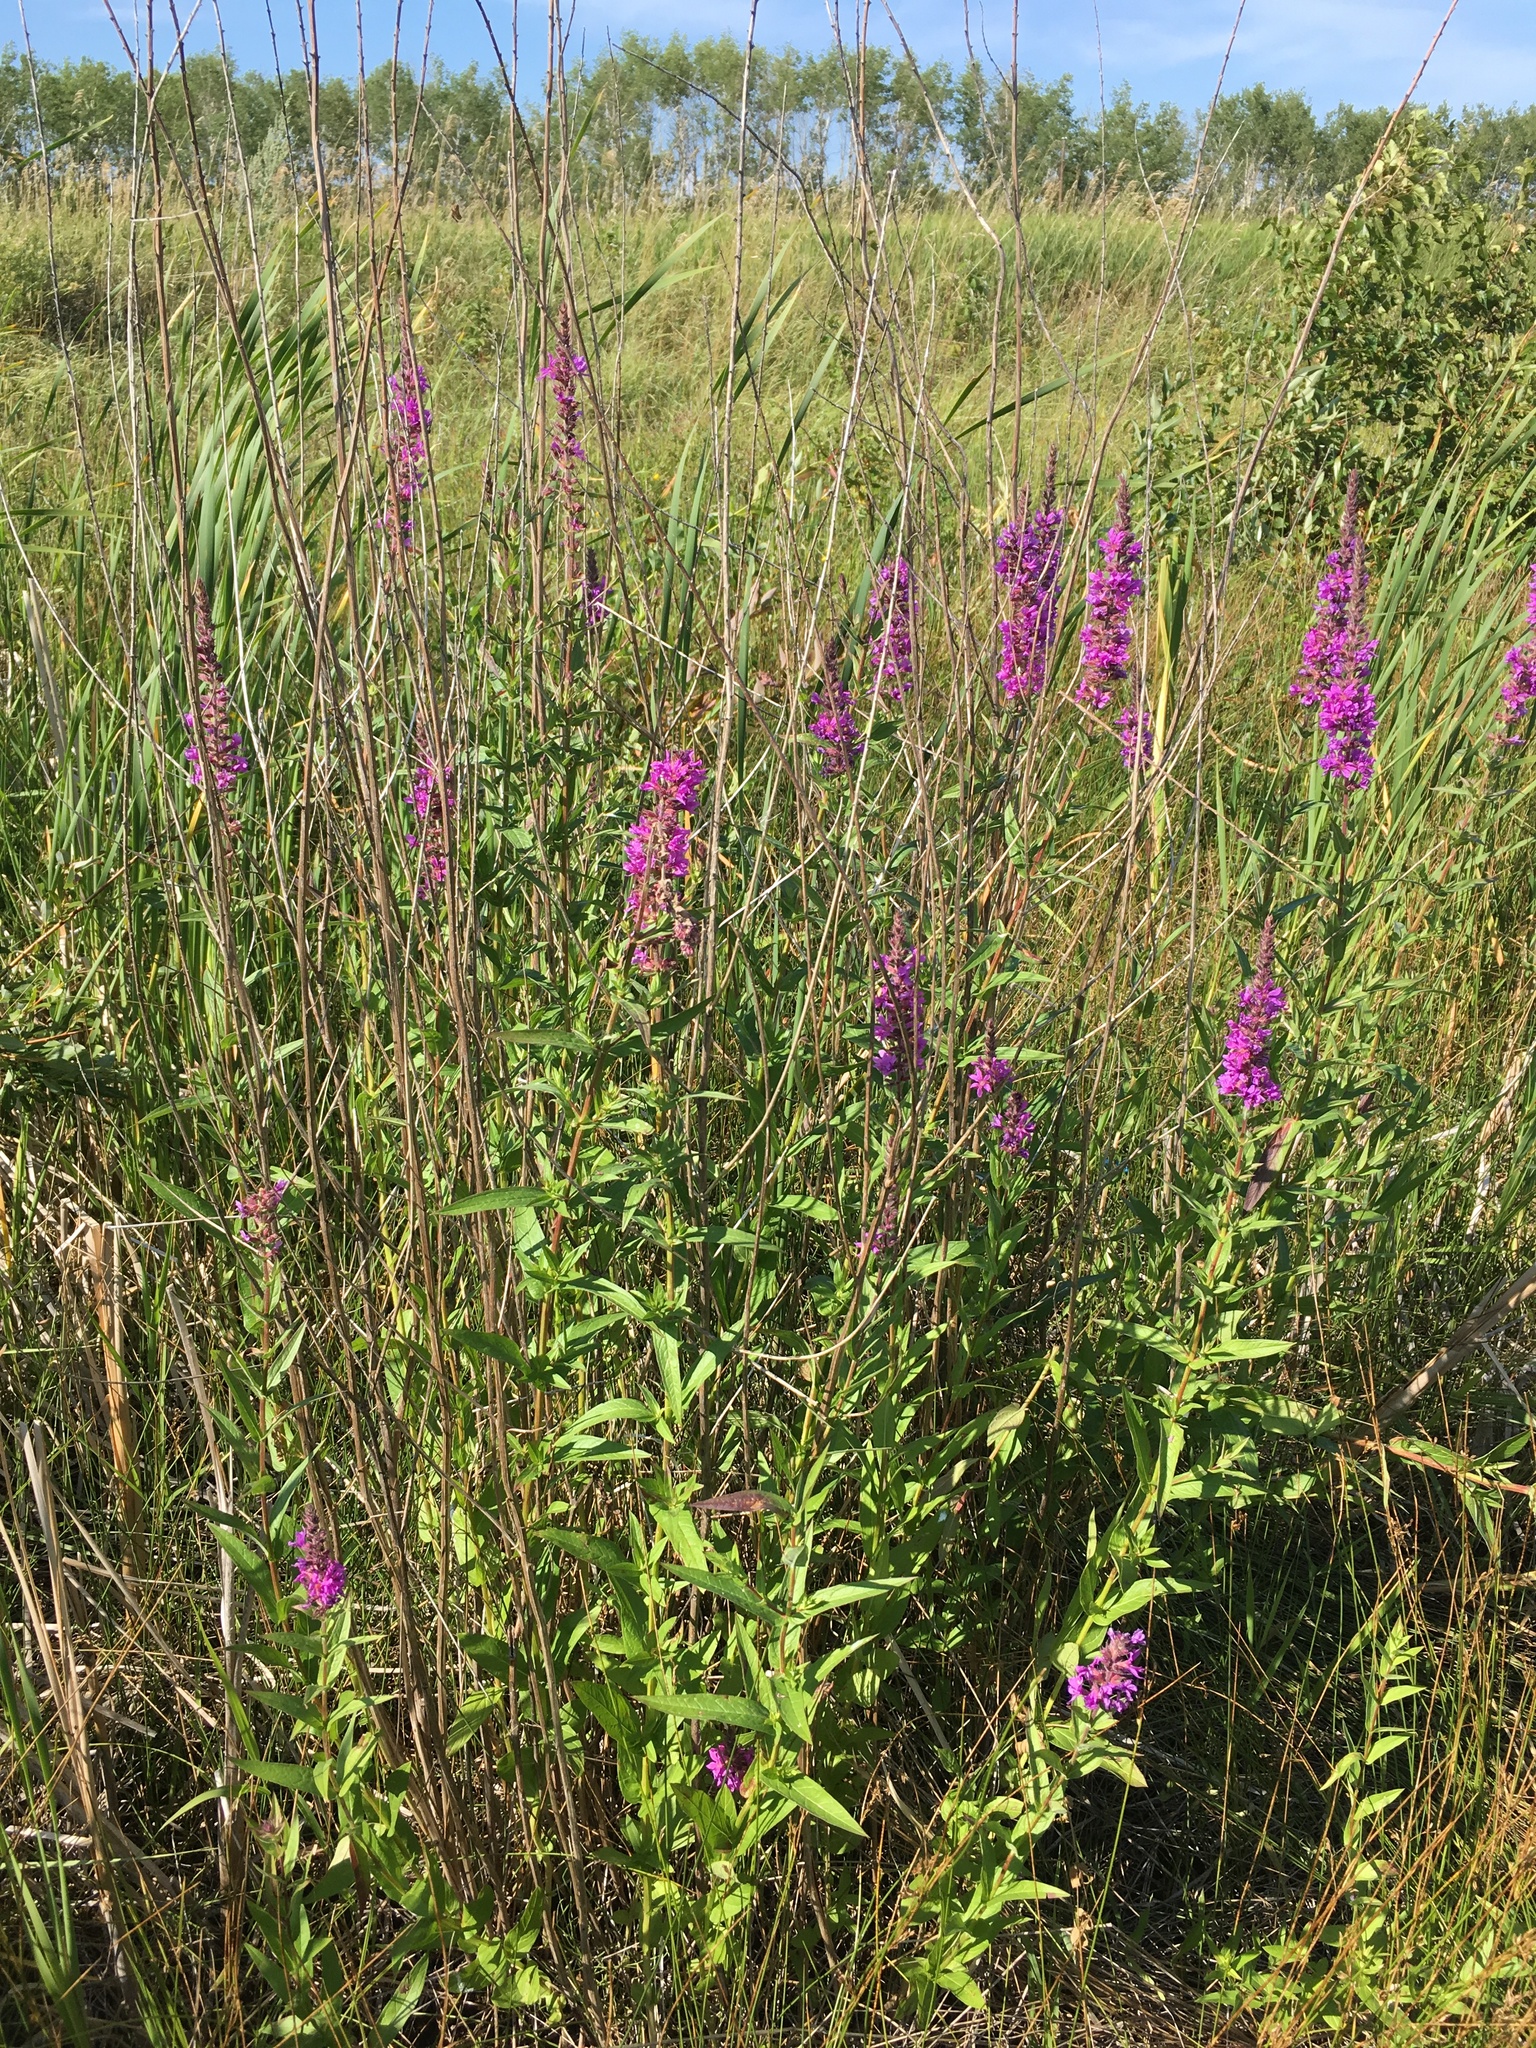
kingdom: Plantae
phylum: Tracheophyta
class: Magnoliopsida
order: Myrtales
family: Lythraceae
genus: Lythrum
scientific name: Lythrum salicaria
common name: Purple loosestrife
